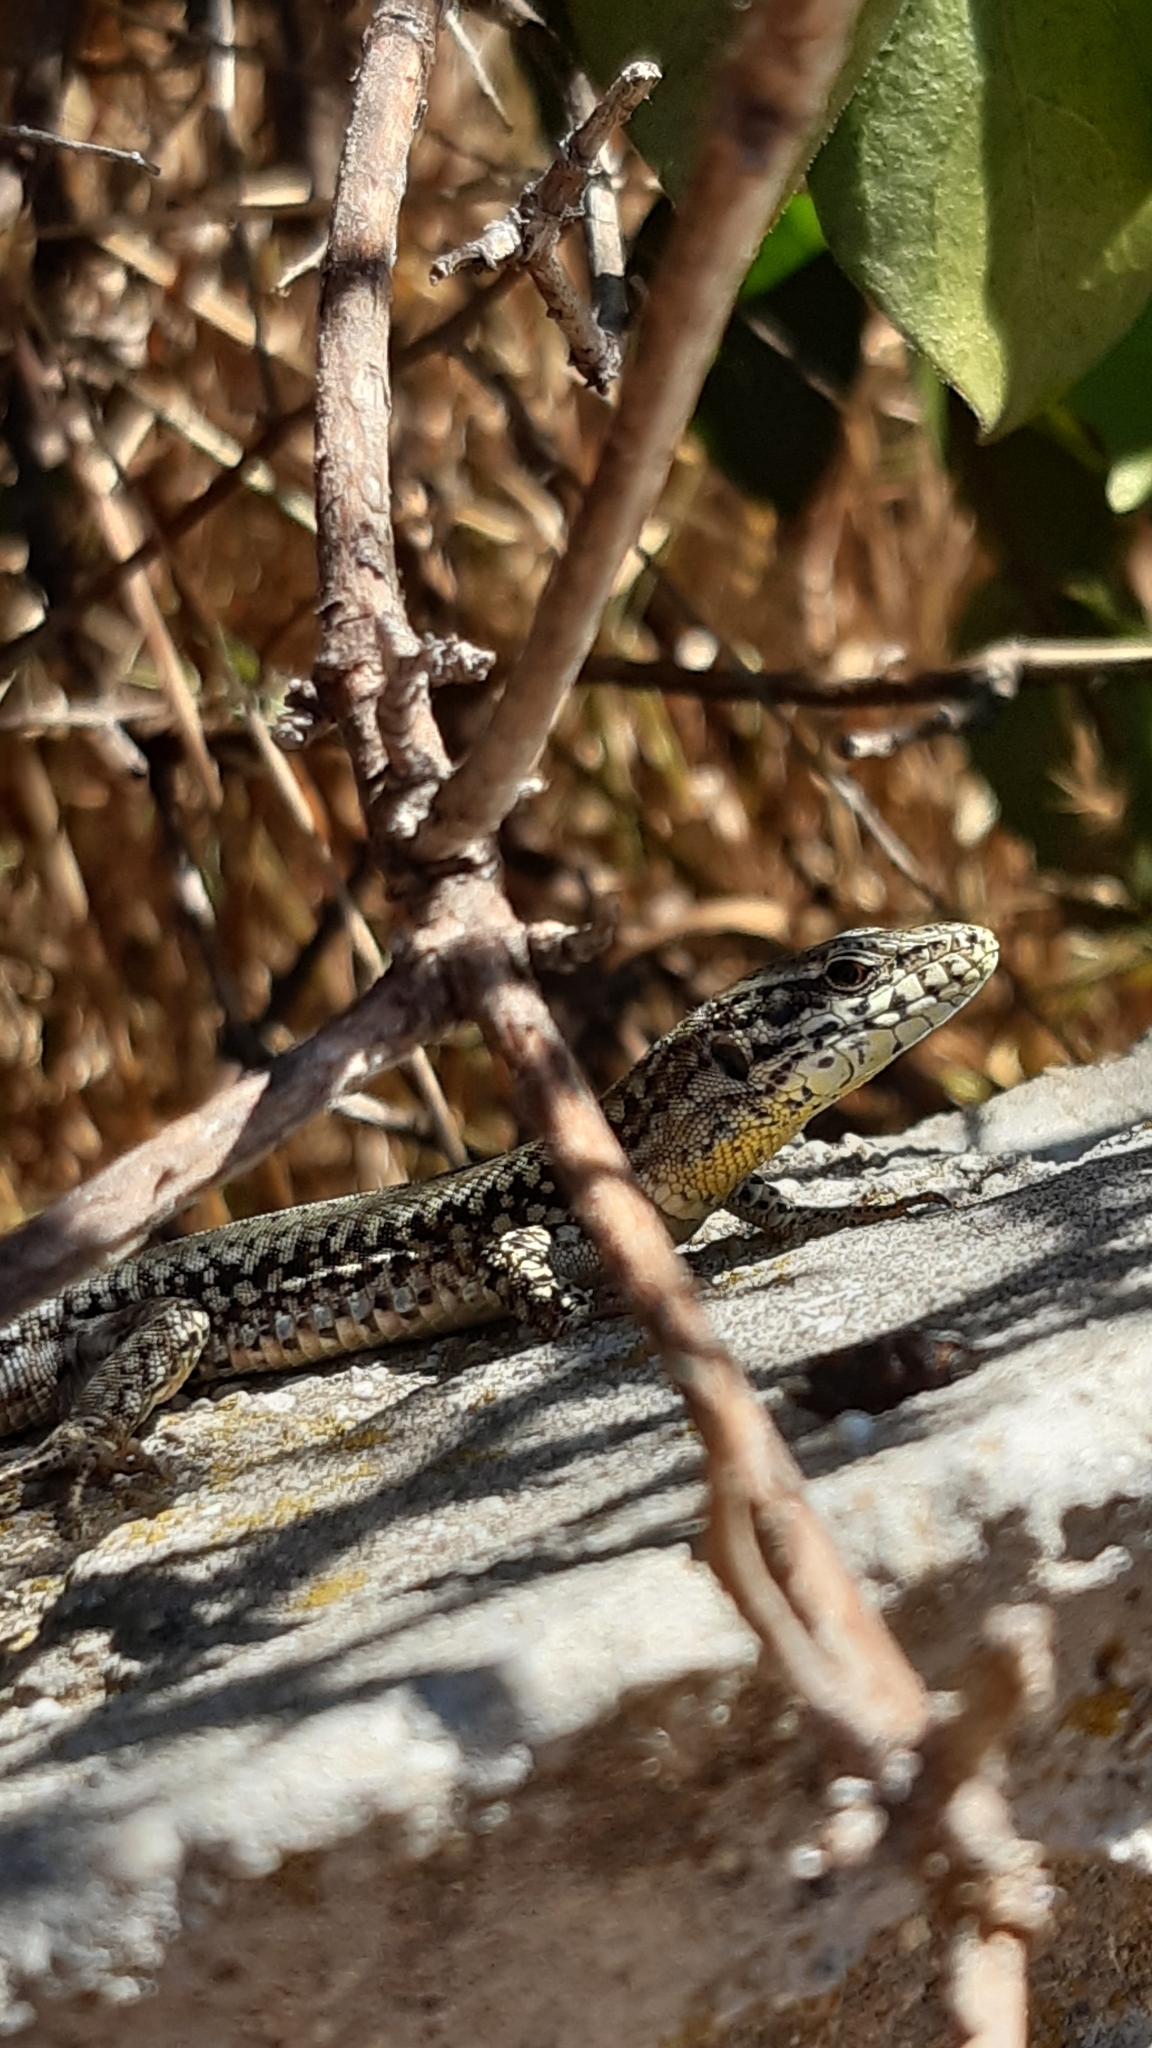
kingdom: Animalia
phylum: Chordata
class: Squamata
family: Lacertidae
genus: Podarcis
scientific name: Podarcis muralis
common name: Common wall lizard
